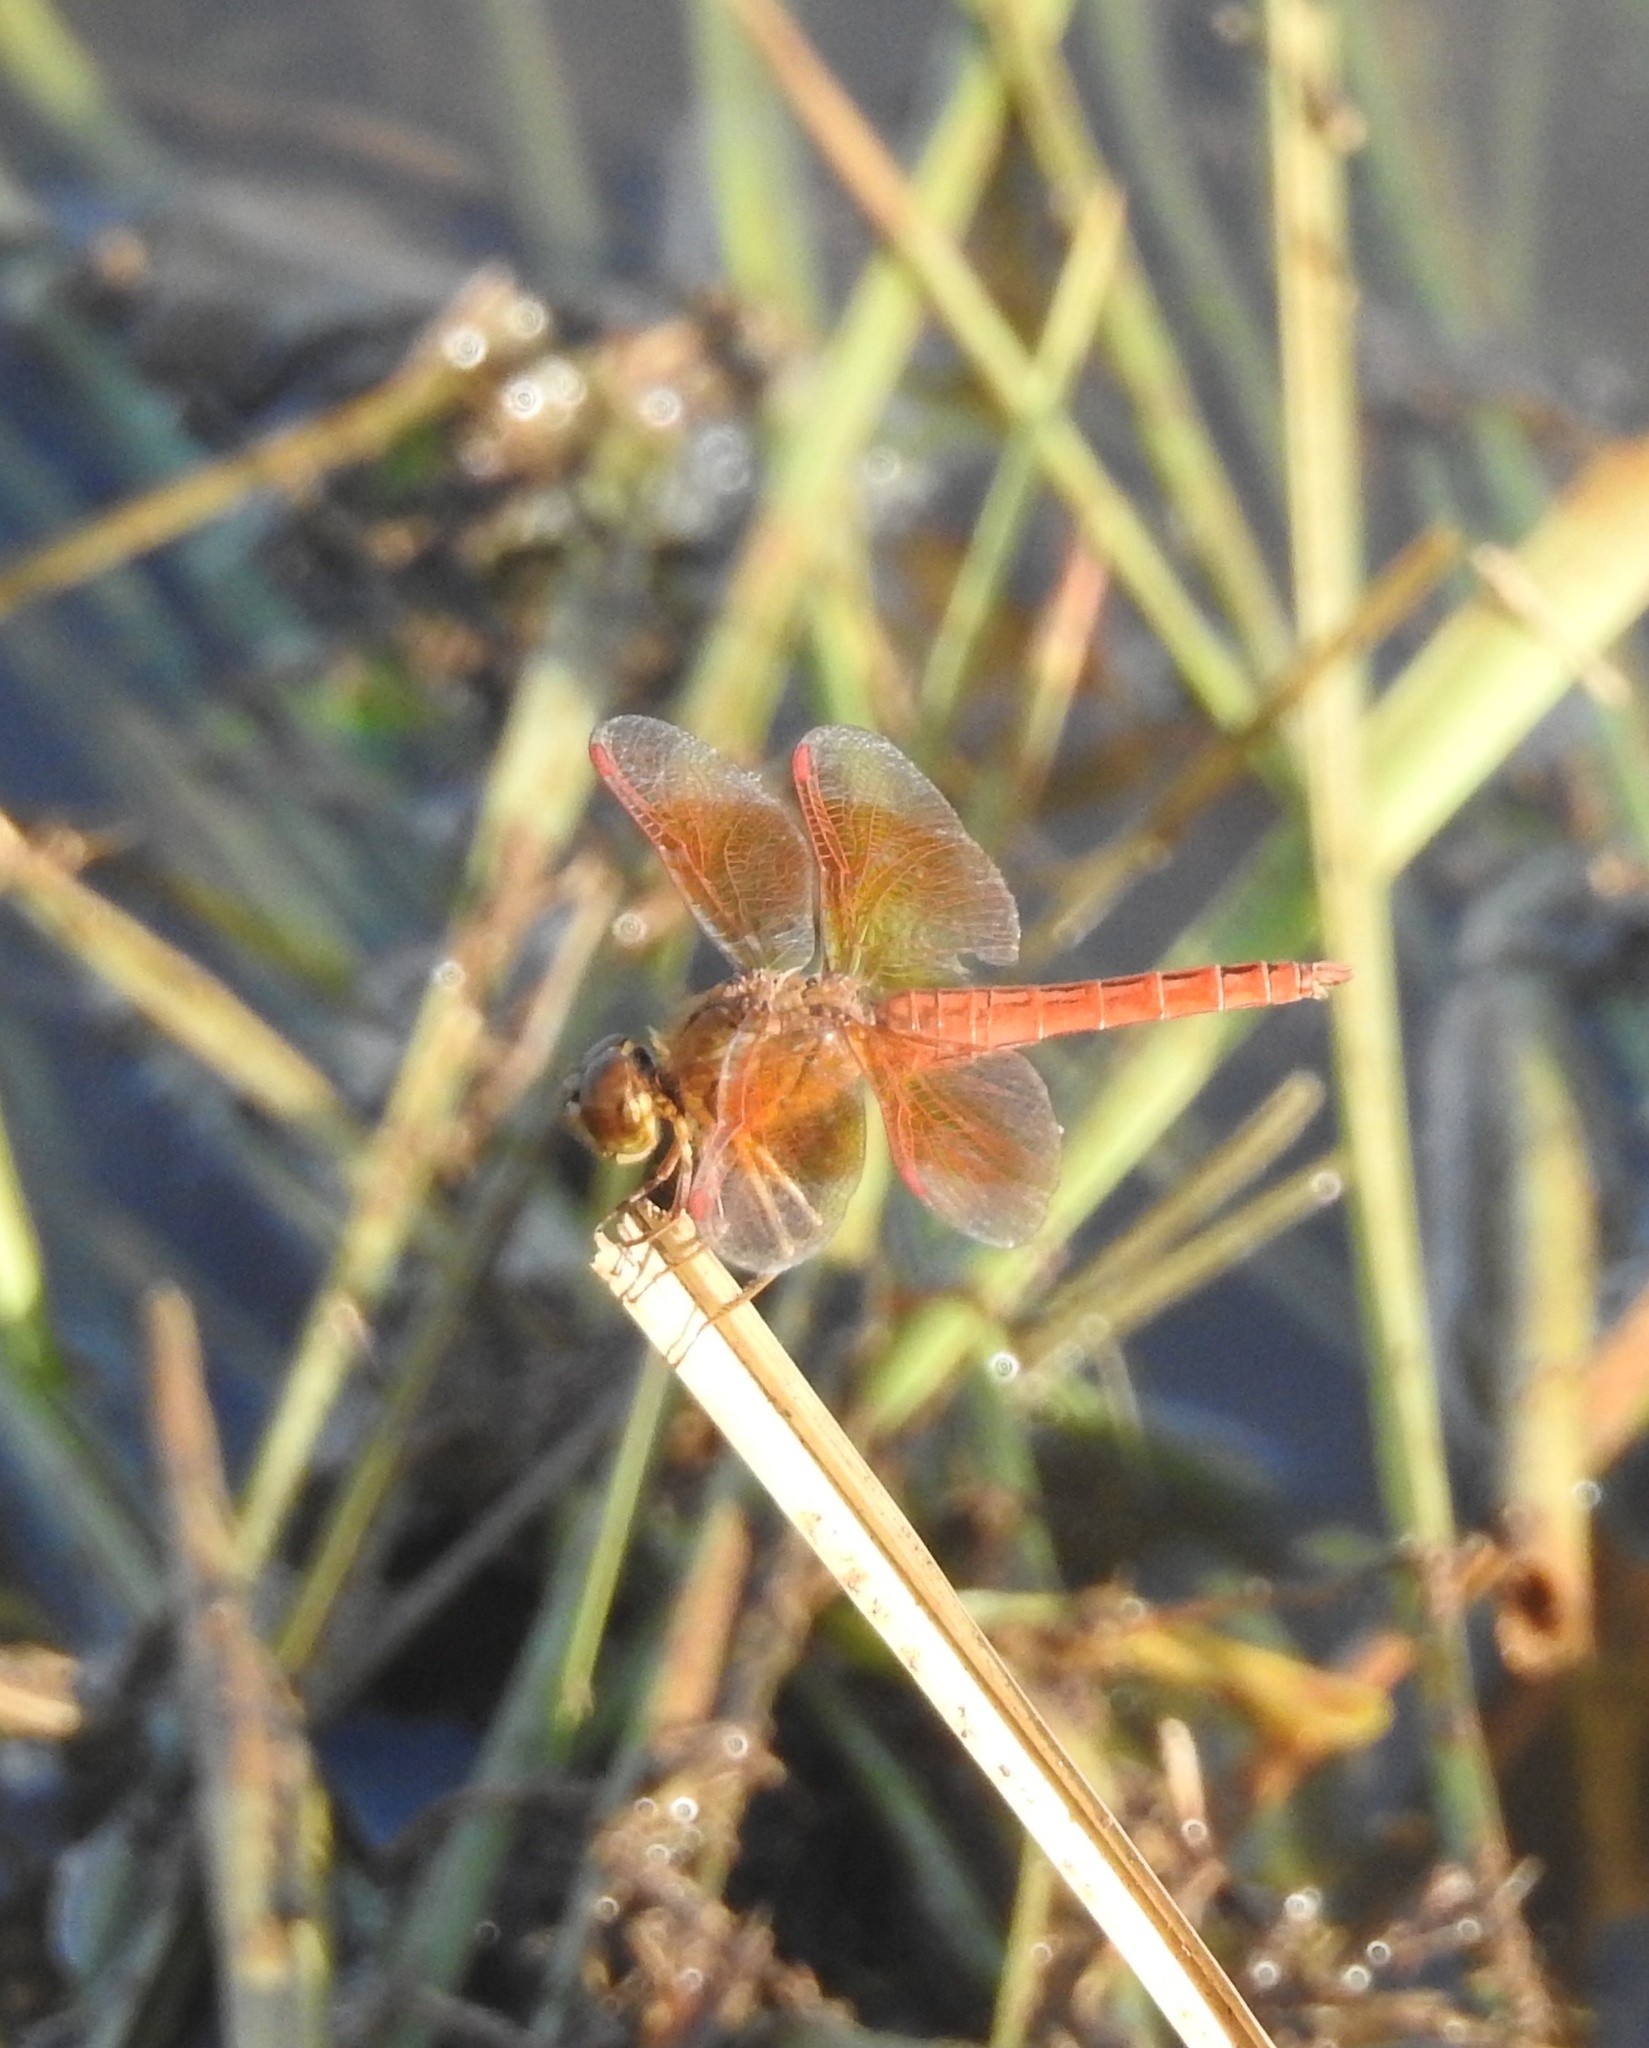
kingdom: Animalia
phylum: Arthropoda
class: Insecta
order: Odonata
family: Libellulidae
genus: Brachythemis
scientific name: Brachythemis contaminata
